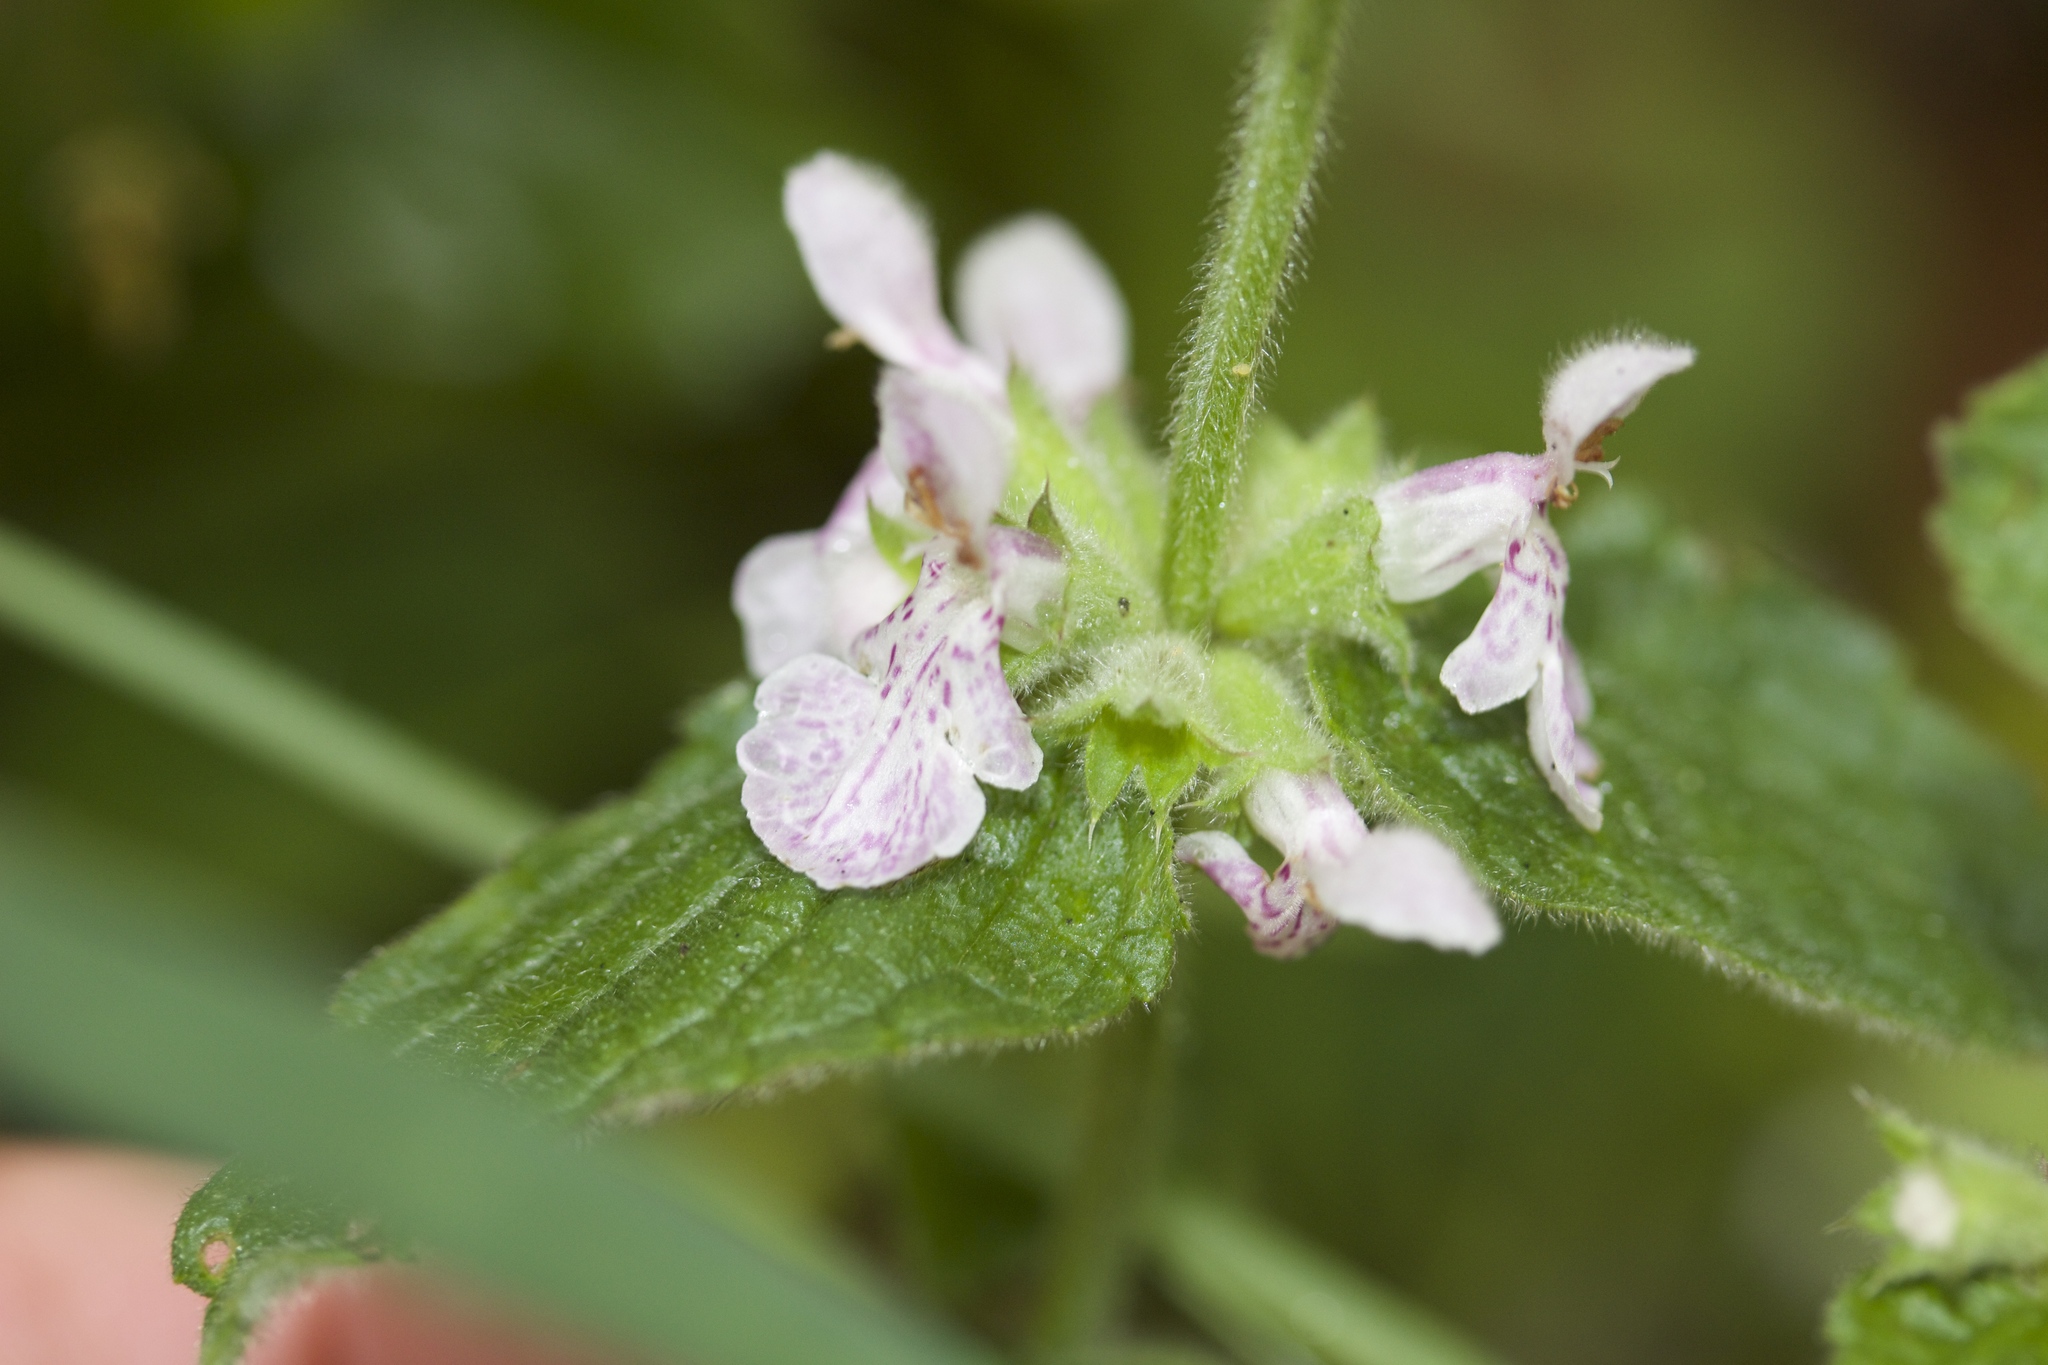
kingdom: Plantae
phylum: Tracheophyta
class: Magnoliopsida
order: Lamiales
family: Lamiaceae
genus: Stachys
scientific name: Stachys ajugoides
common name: Hedge-nettle
